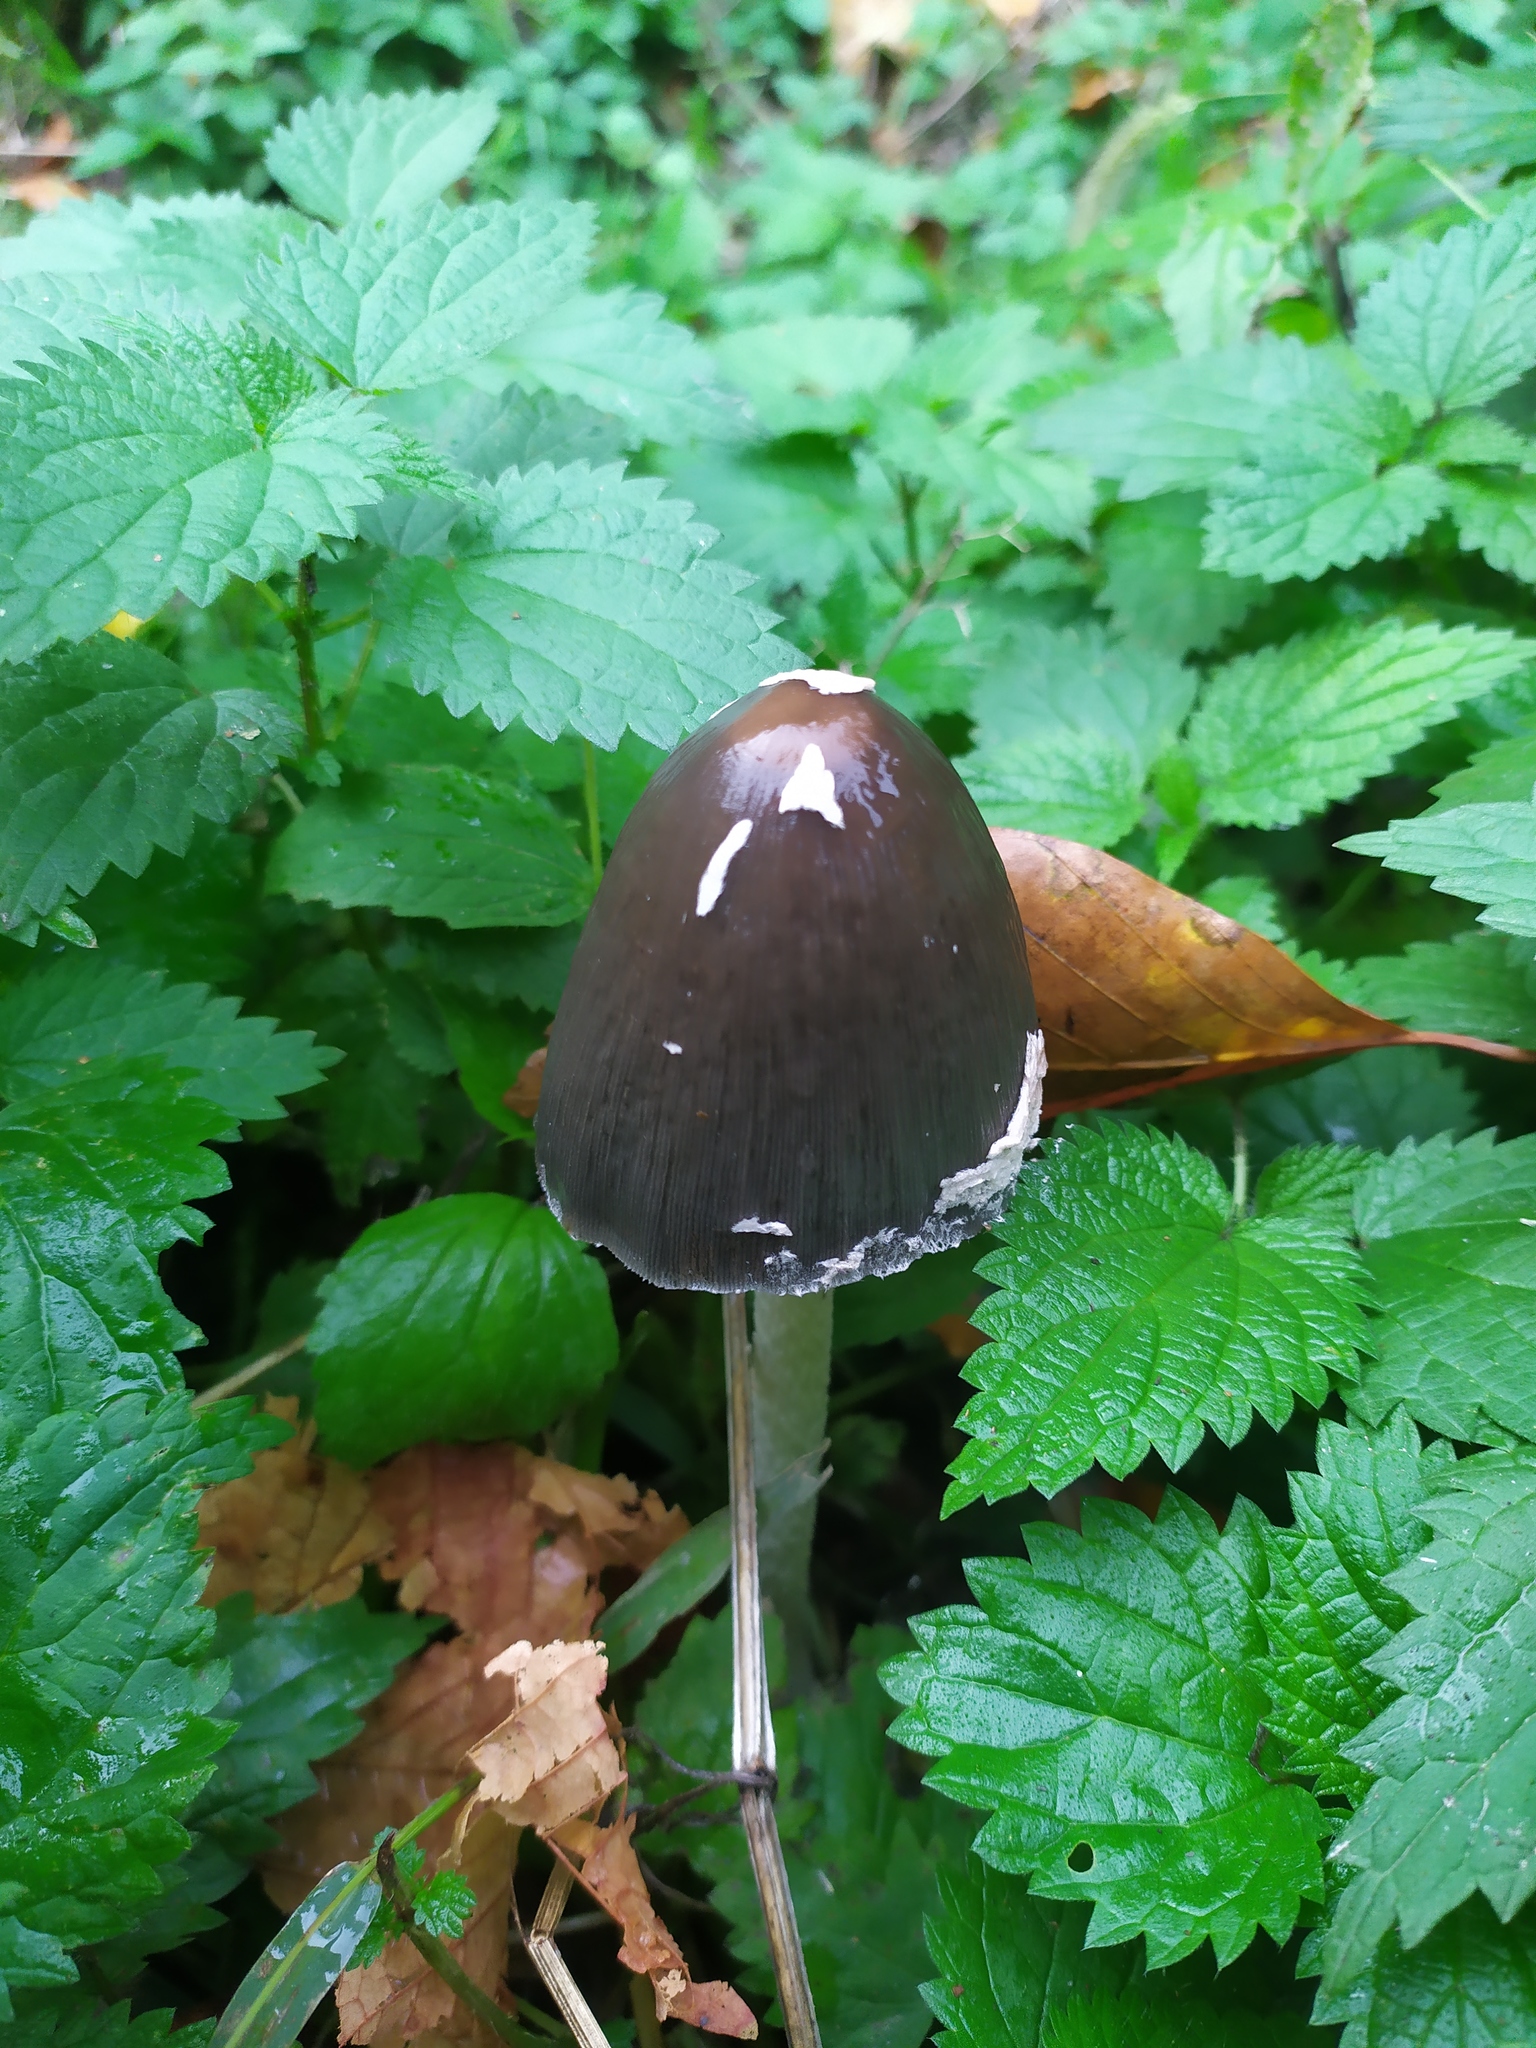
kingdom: Fungi
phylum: Basidiomycota
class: Agaricomycetes
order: Agaricales
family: Psathyrellaceae
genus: Coprinopsis
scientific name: Coprinopsis picacea
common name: Magpie inkcap
